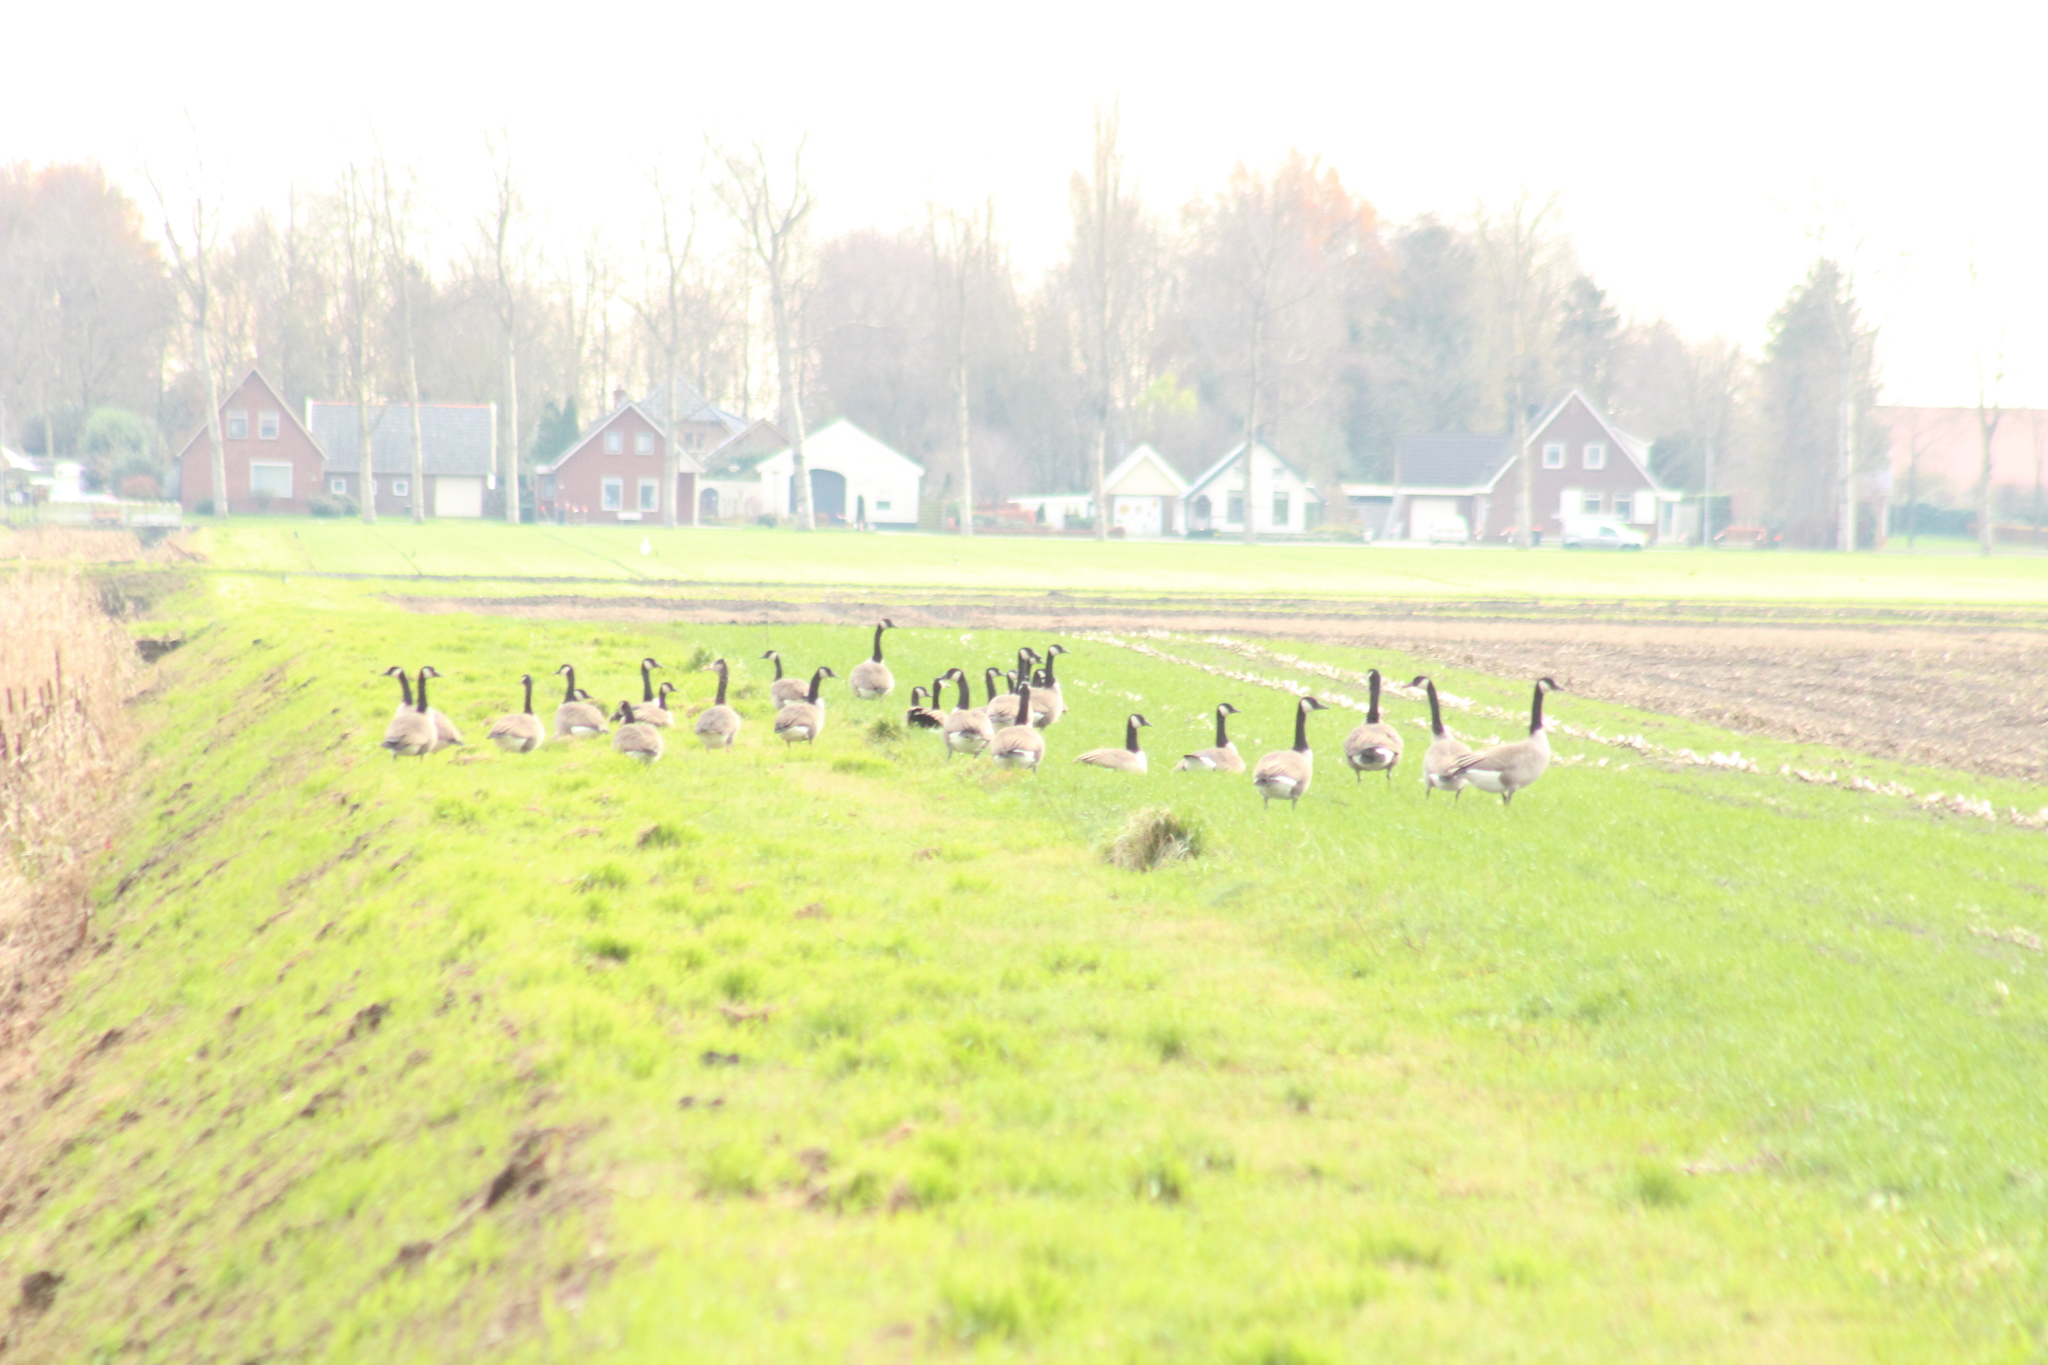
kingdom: Animalia
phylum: Chordata
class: Aves
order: Anseriformes
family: Anatidae
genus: Branta
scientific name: Branta canadensis
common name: Canada goose
